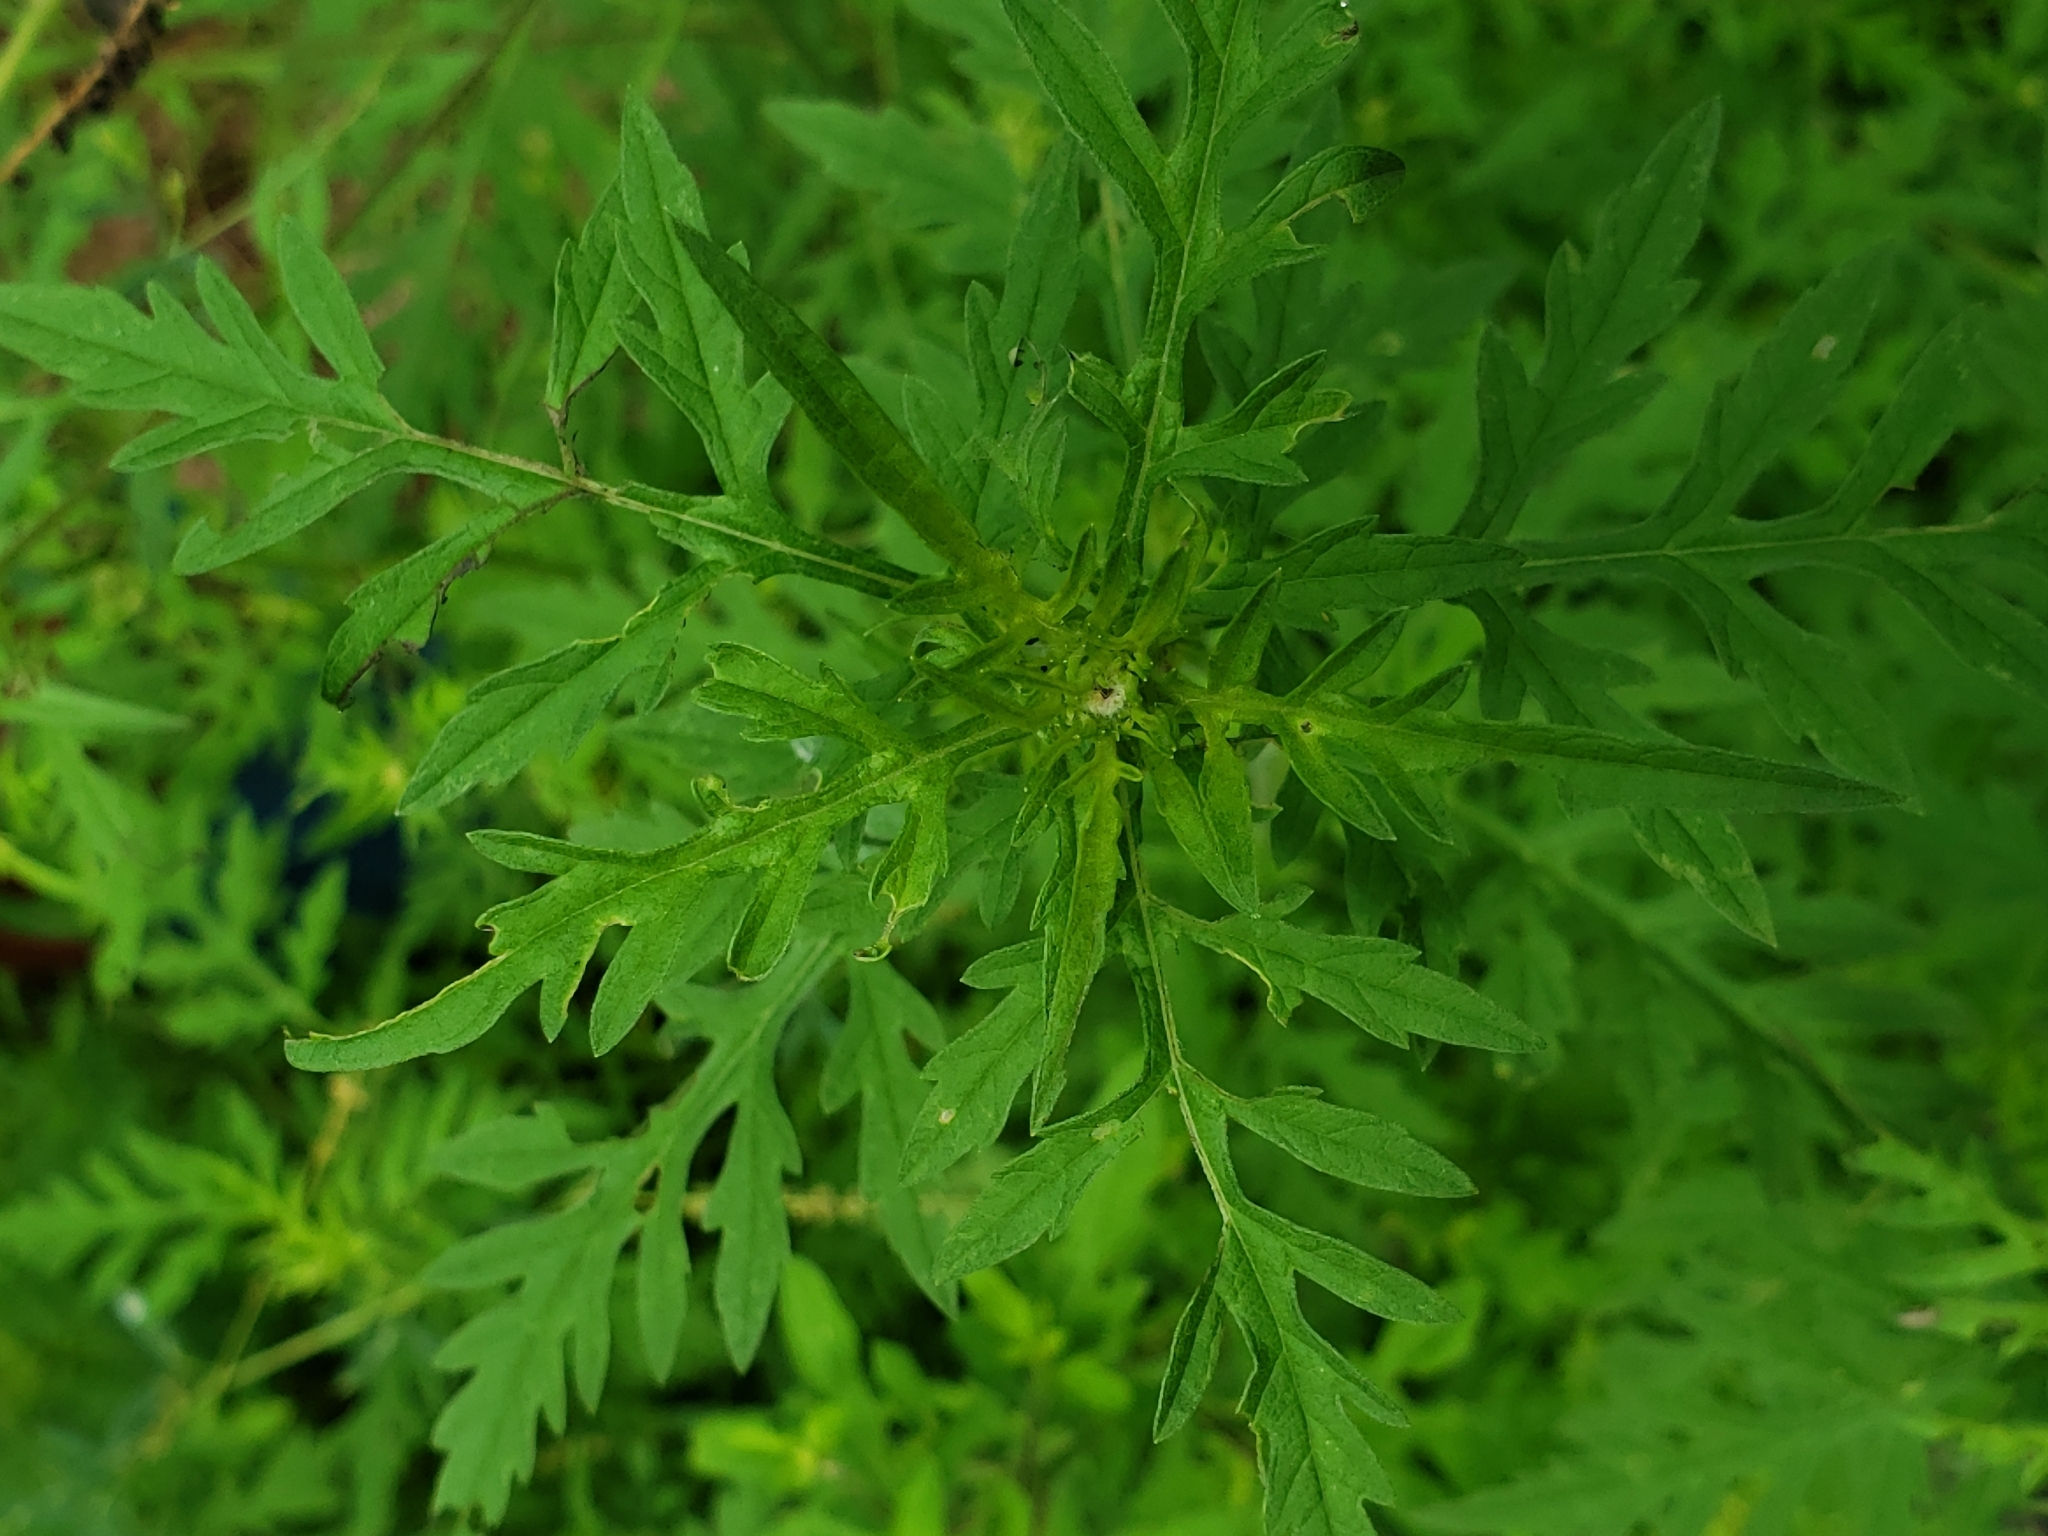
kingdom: Plantae
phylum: Tracheophyta
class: Magnoliopsida
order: Asterales
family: Asteraceae
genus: Ambrosia
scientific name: Ambrosia artemisiifolia
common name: Annual ragweed
